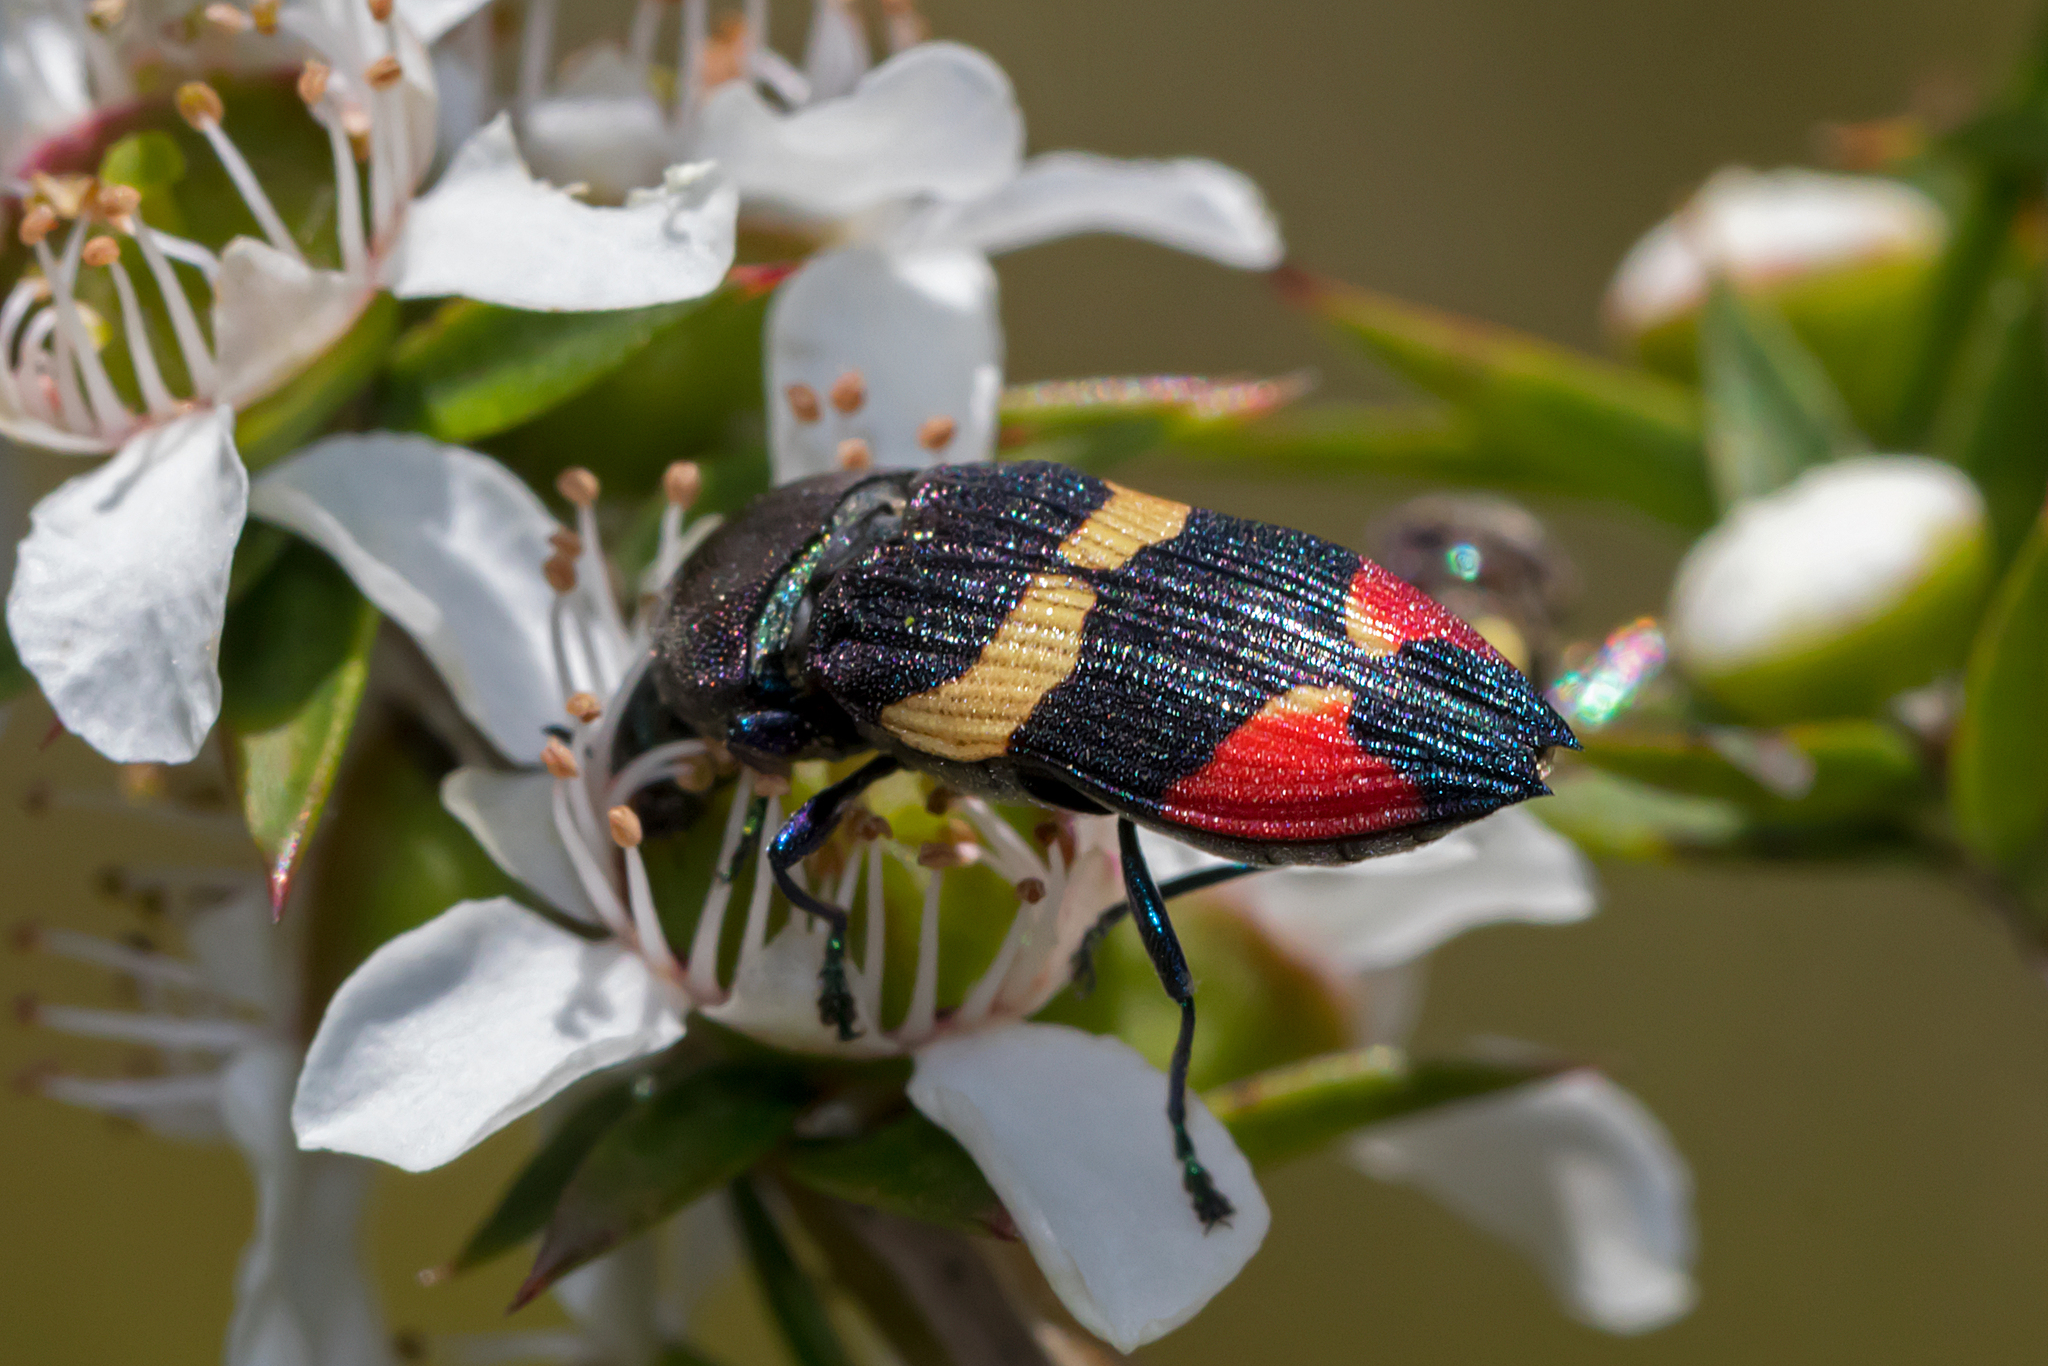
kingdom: Animalia
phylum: Arthropoda
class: Insecta
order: Coleoptera
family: Buprestidae
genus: Castiarina
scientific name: Castiarina bella
